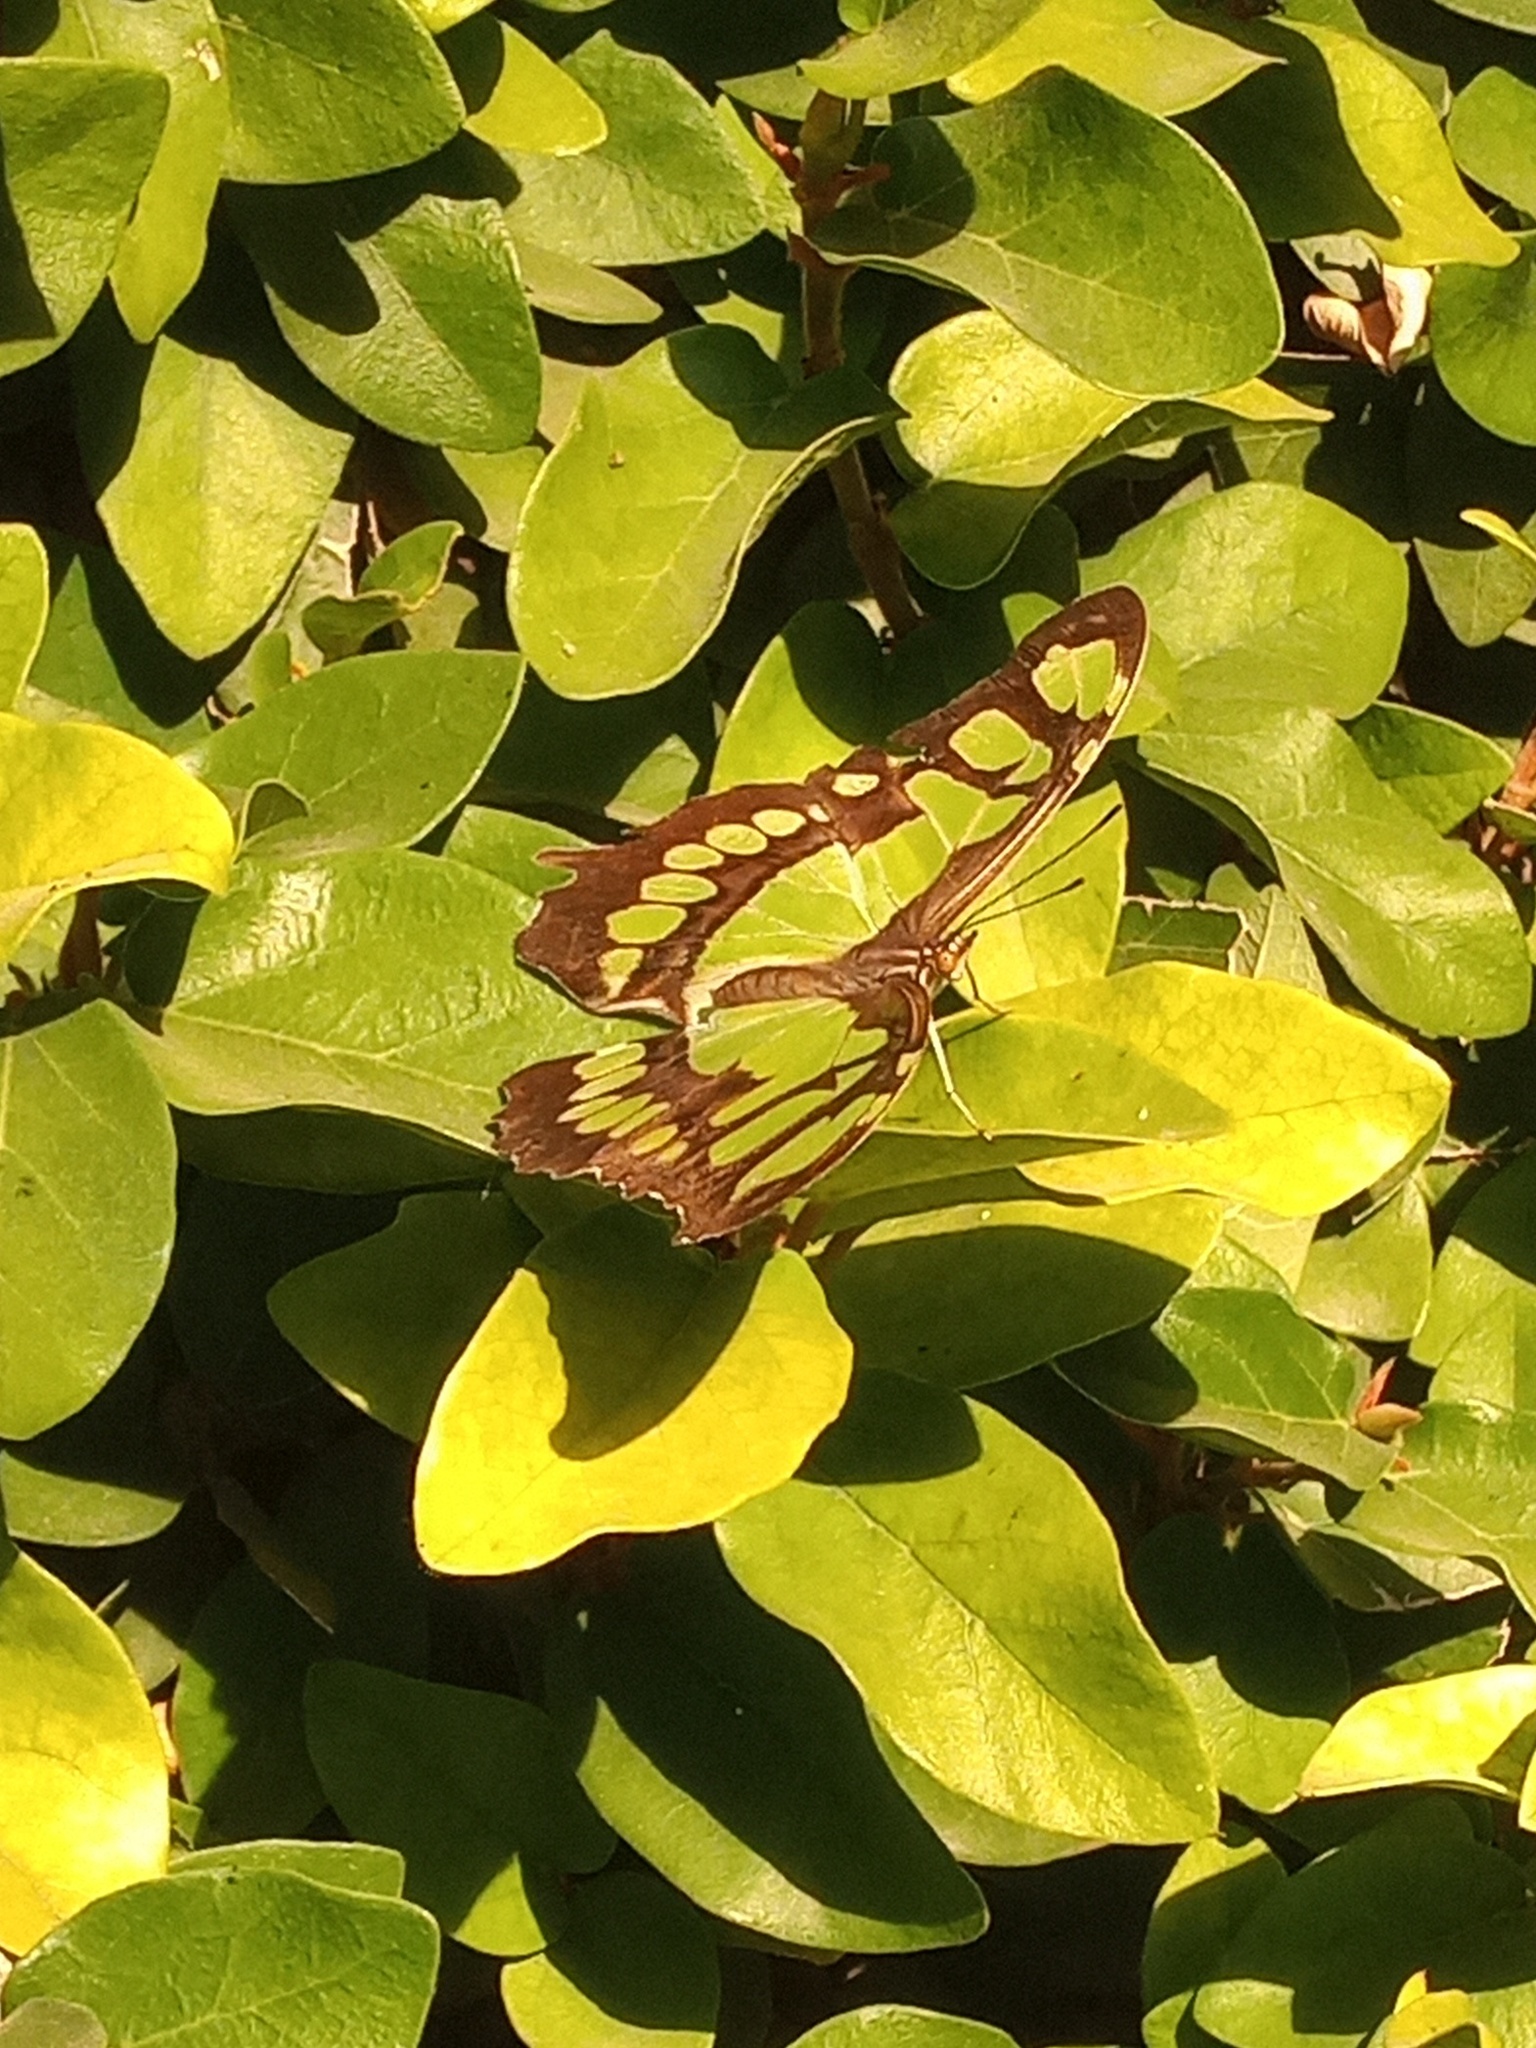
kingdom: Animalia
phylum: Arthropoda
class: Insecta
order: Lepidoptera
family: Nymphalidae
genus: Siproeta
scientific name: Siproeta stelenes
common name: Malachite
